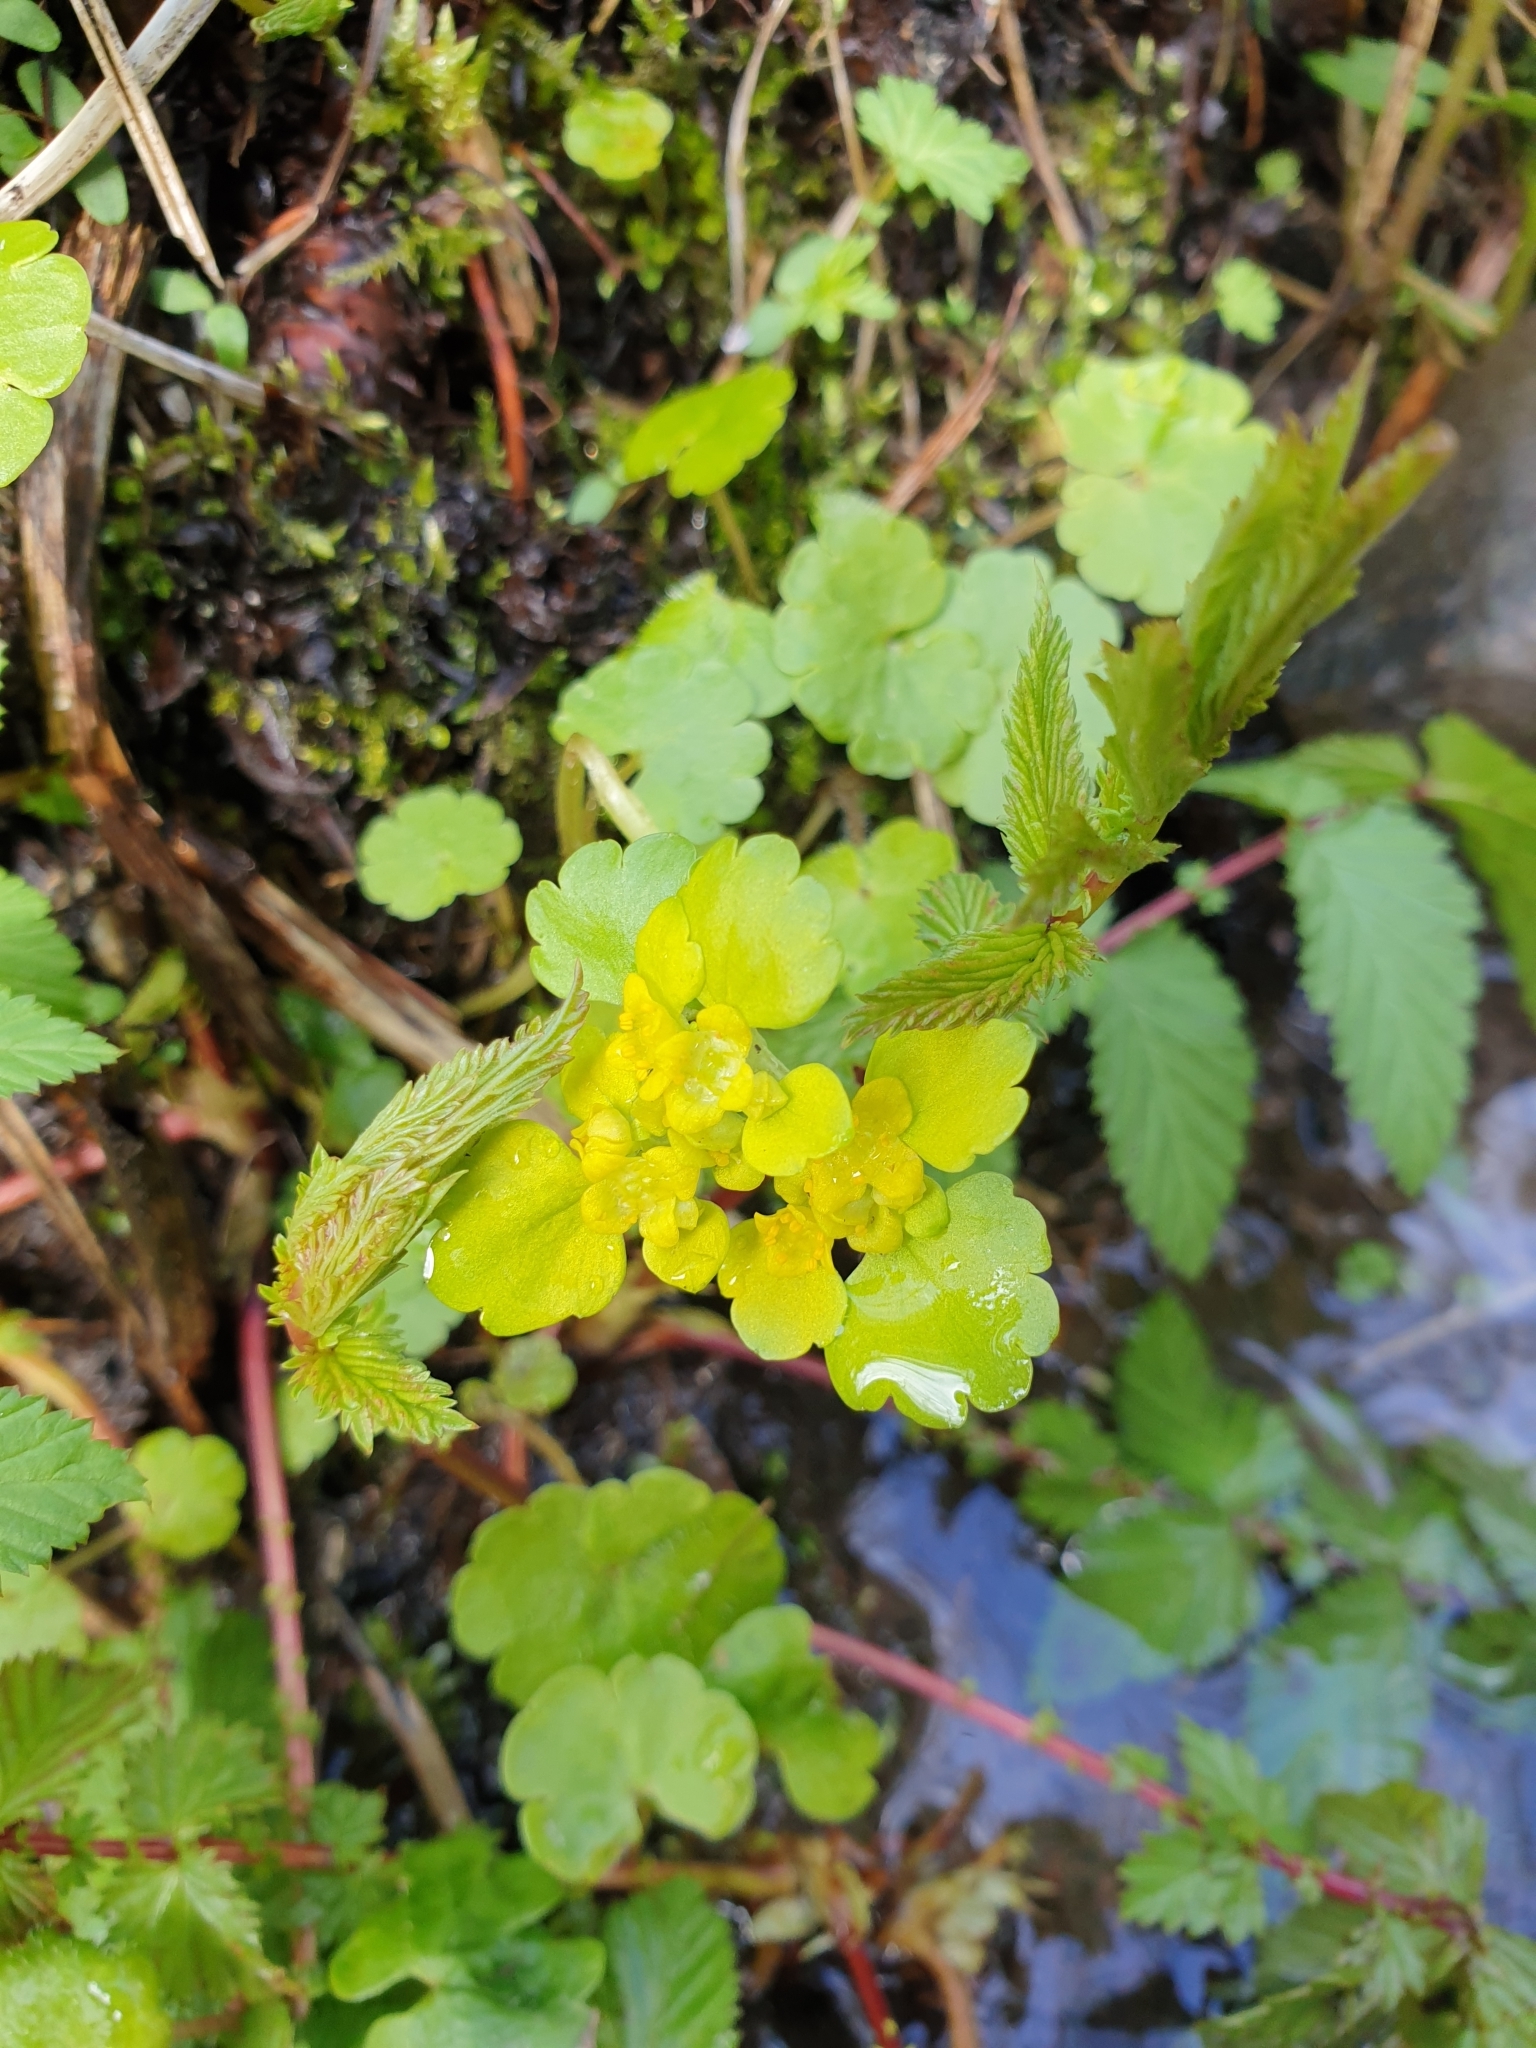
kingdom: Plantae
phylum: Tracheophyta
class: Magnoliopsida
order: Saxifragales
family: Saxifragaceae
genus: Chrysosplenium
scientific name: Chrysosplenium alternifolium
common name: Alternate-leaved golden-saxifrage
